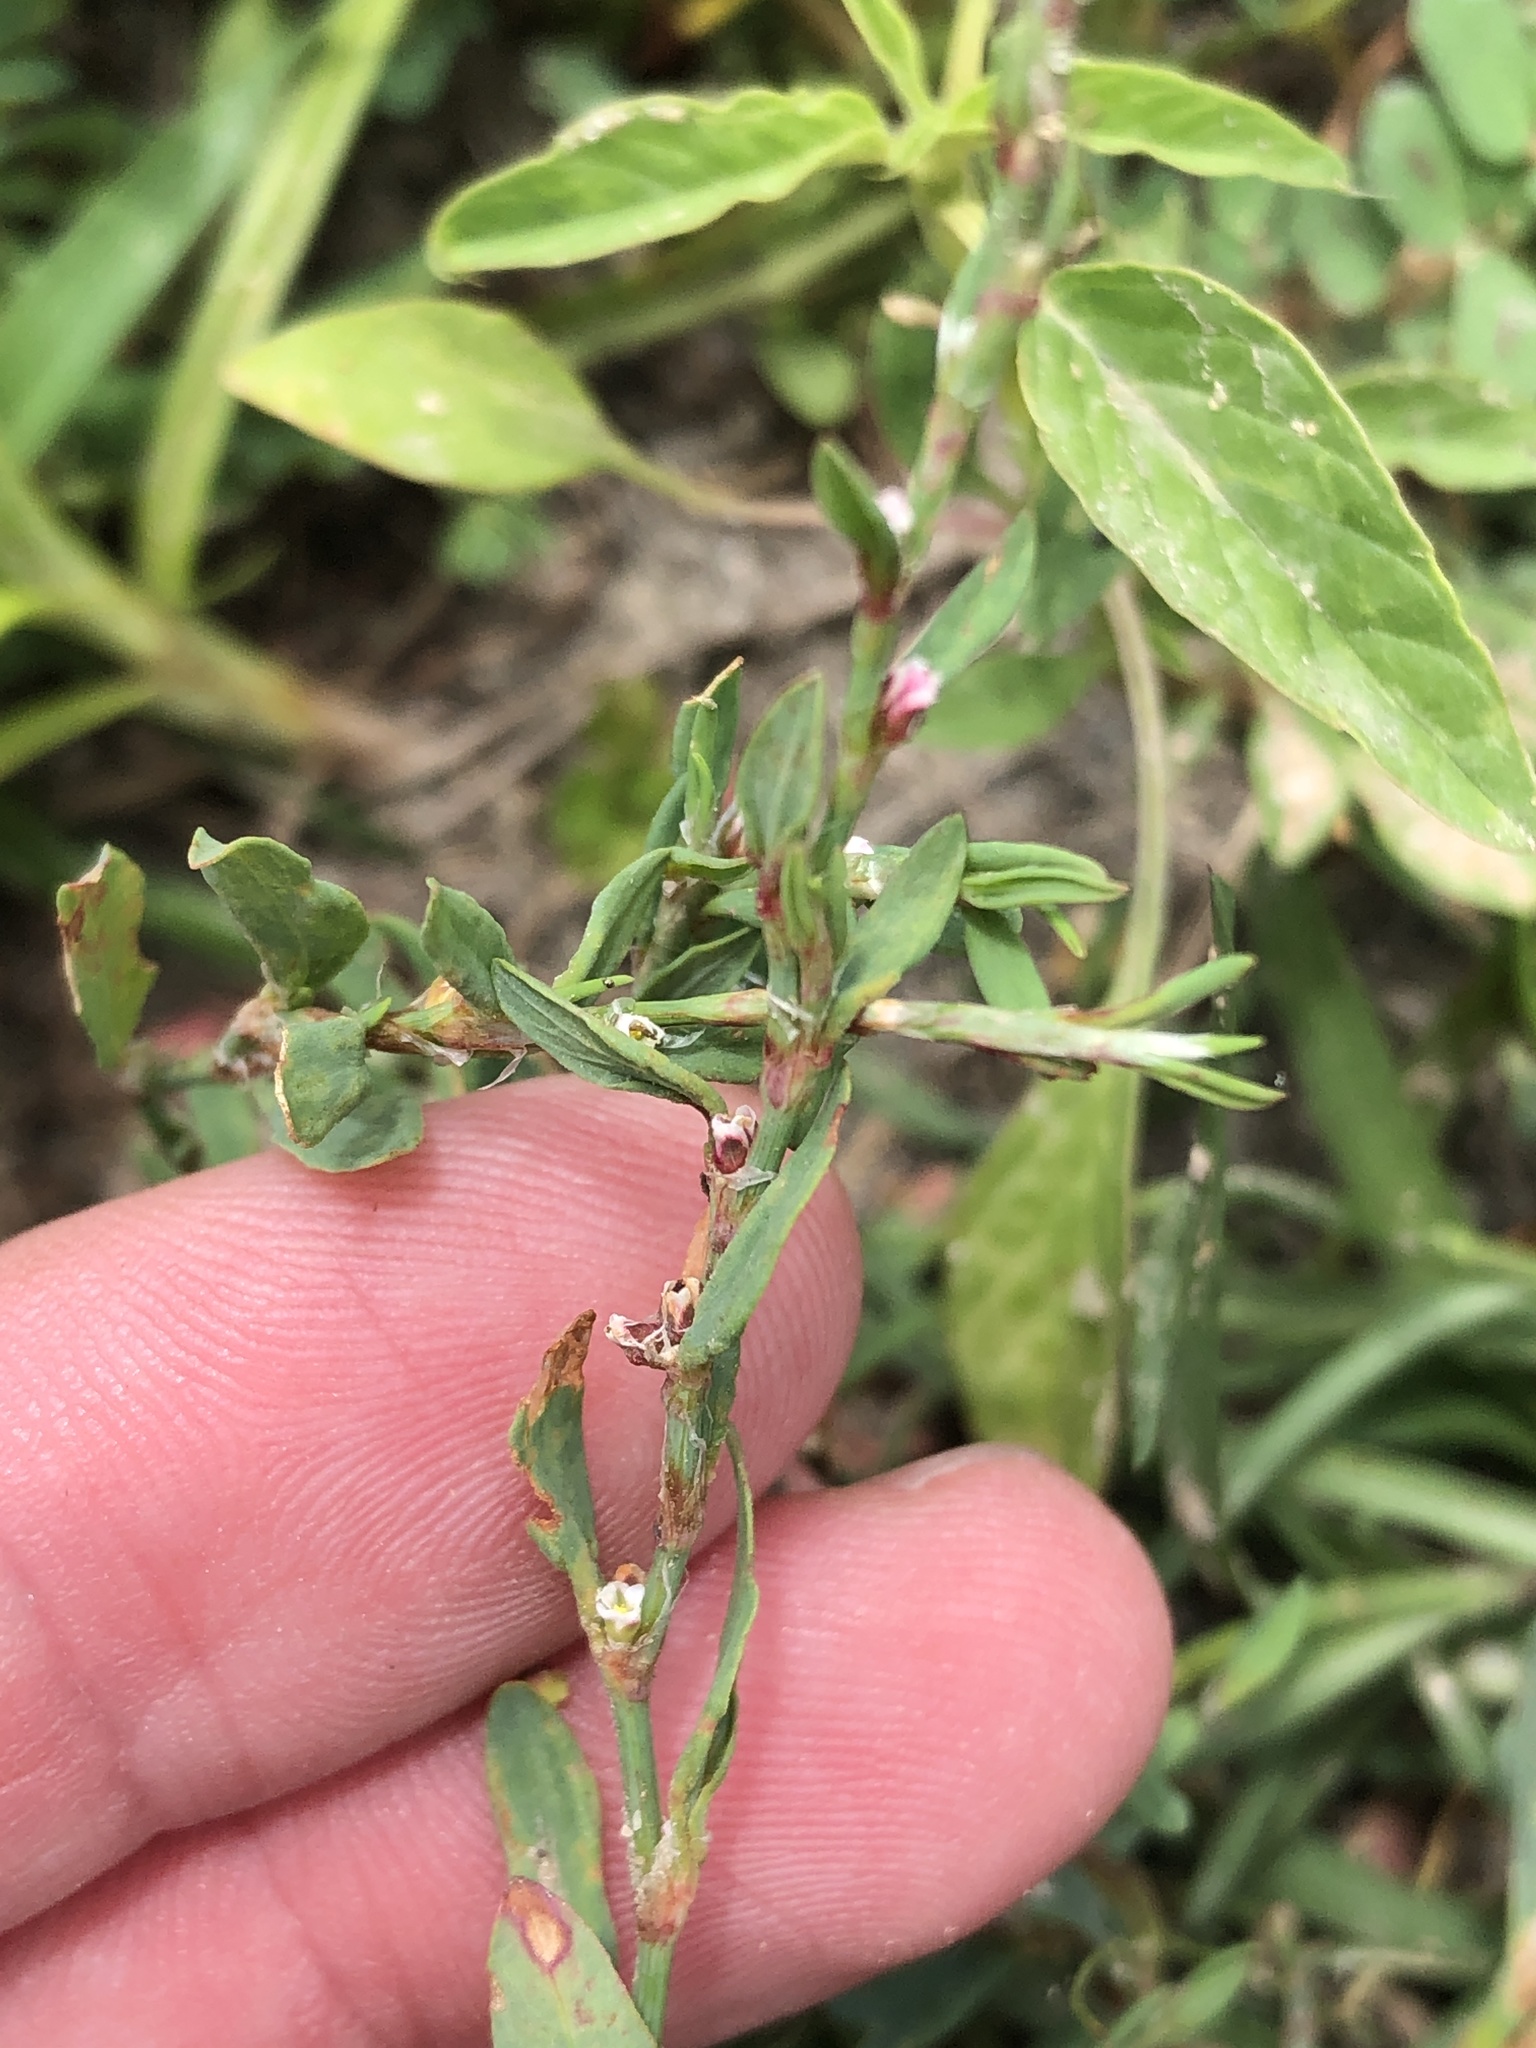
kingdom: Plantae
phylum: Tracheophyta
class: Magnoliopsida
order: Caryophyllales
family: Polygonaceae
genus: Polygonum
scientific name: Polygonum aviculare
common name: Prostrate knotweed
